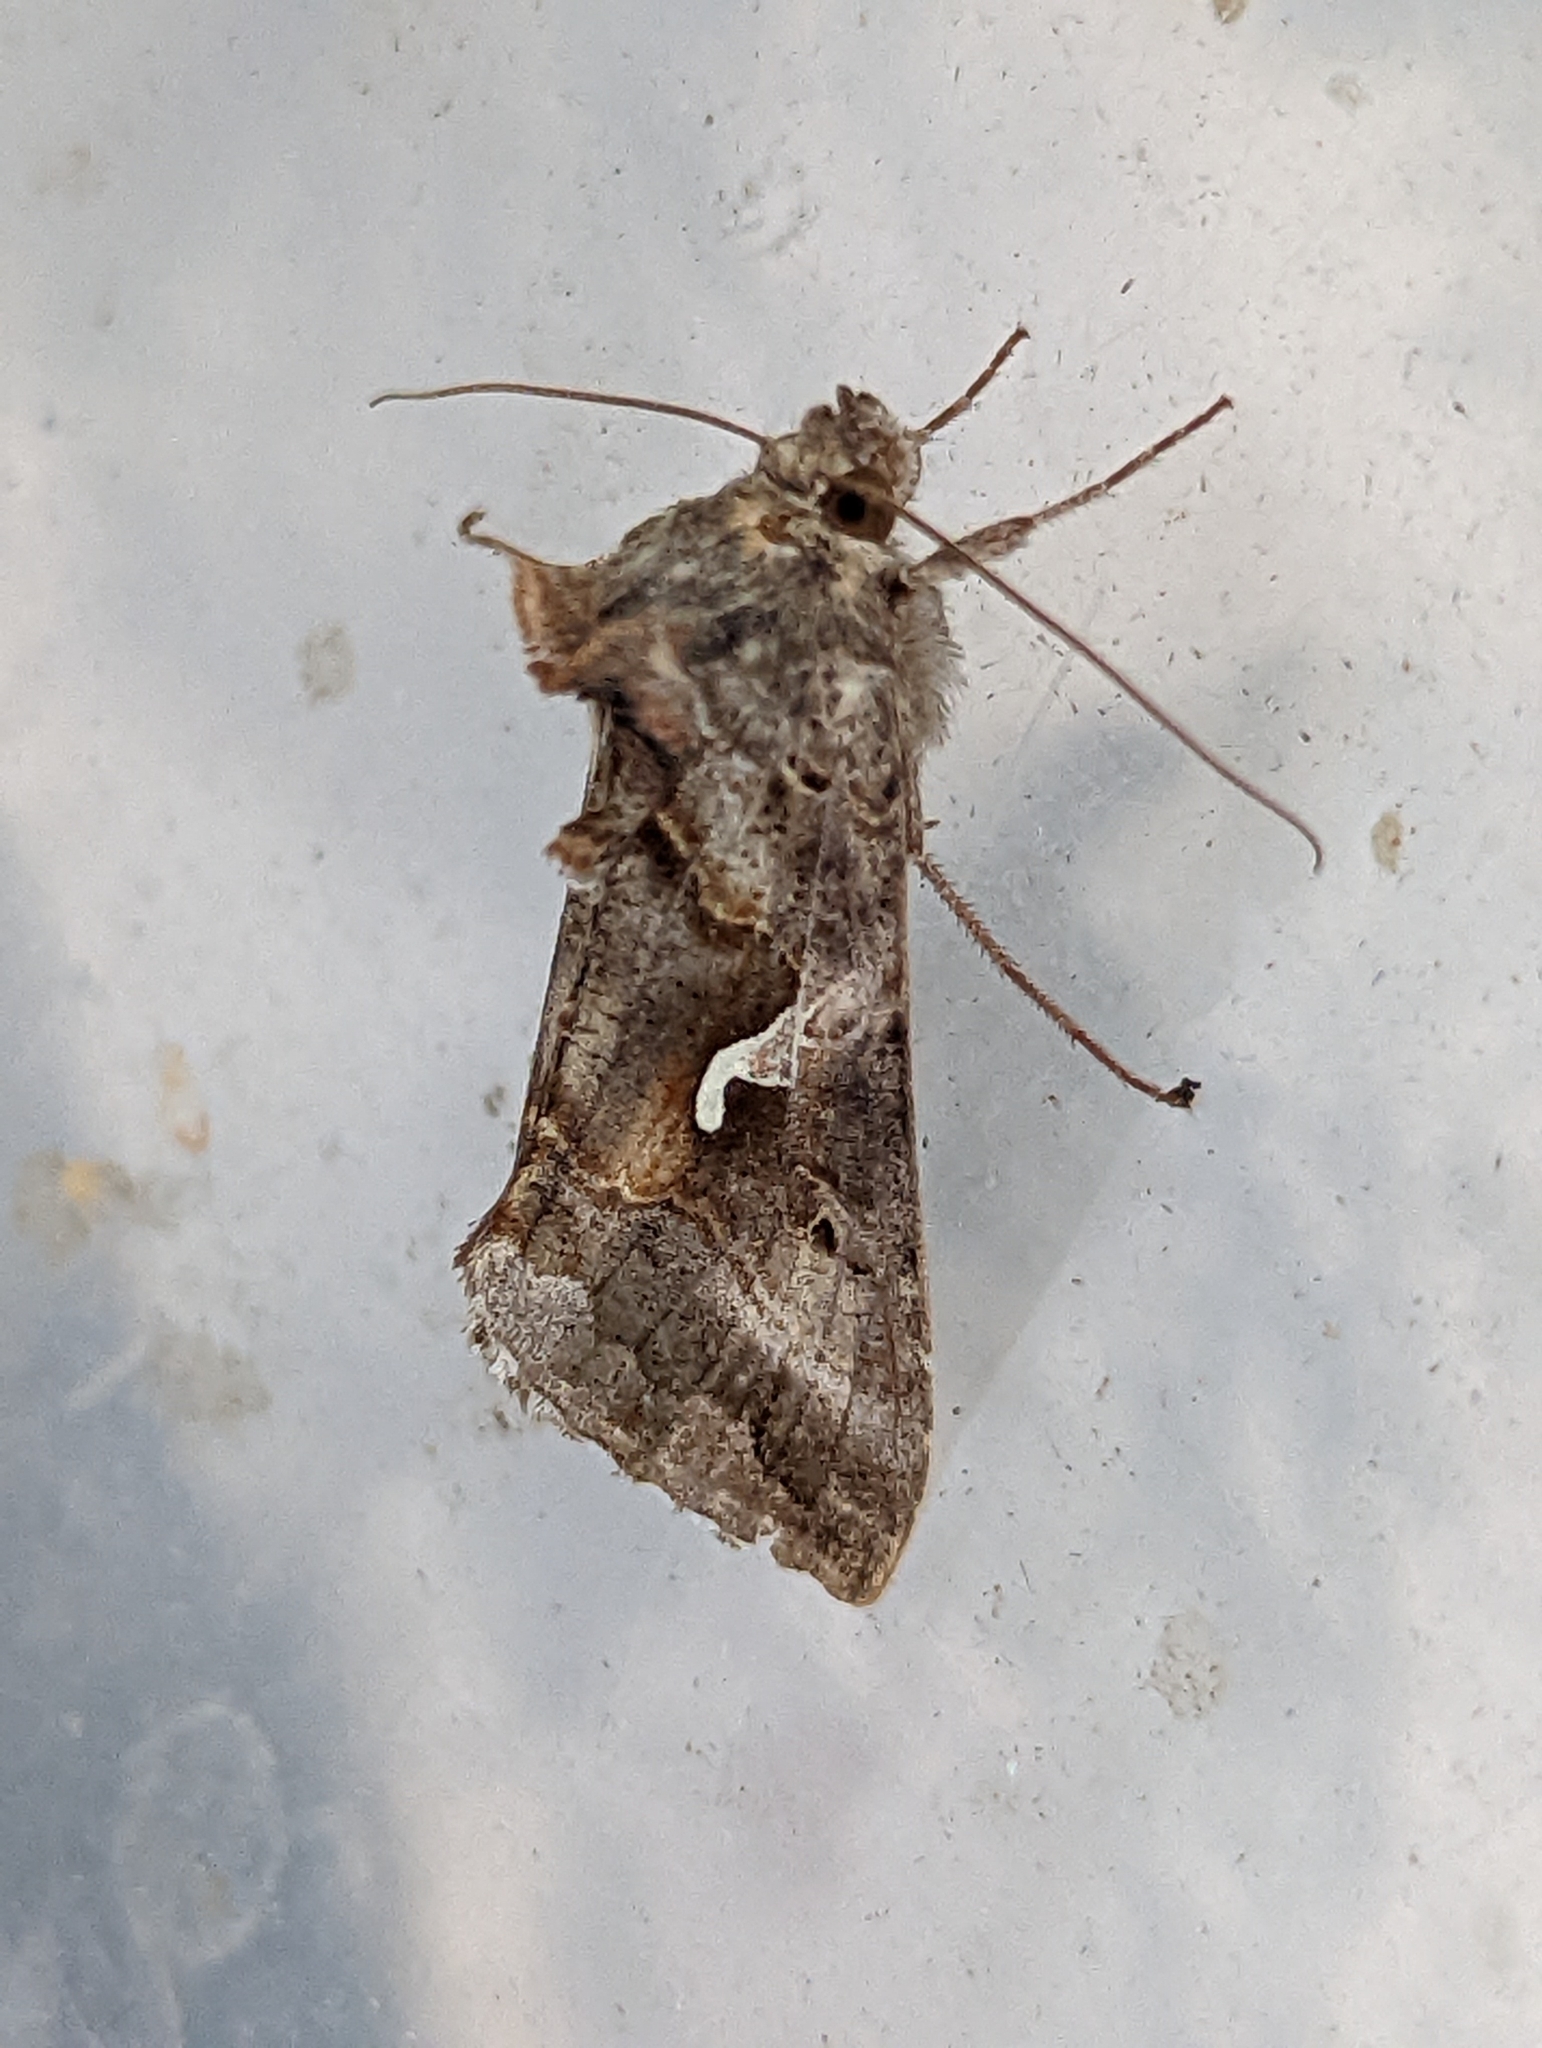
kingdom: Animalia
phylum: Arthropoda
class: Insecta
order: Lepidoptera
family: Noctuidae
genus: Autographa
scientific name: Autographa gamma
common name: Silver y
